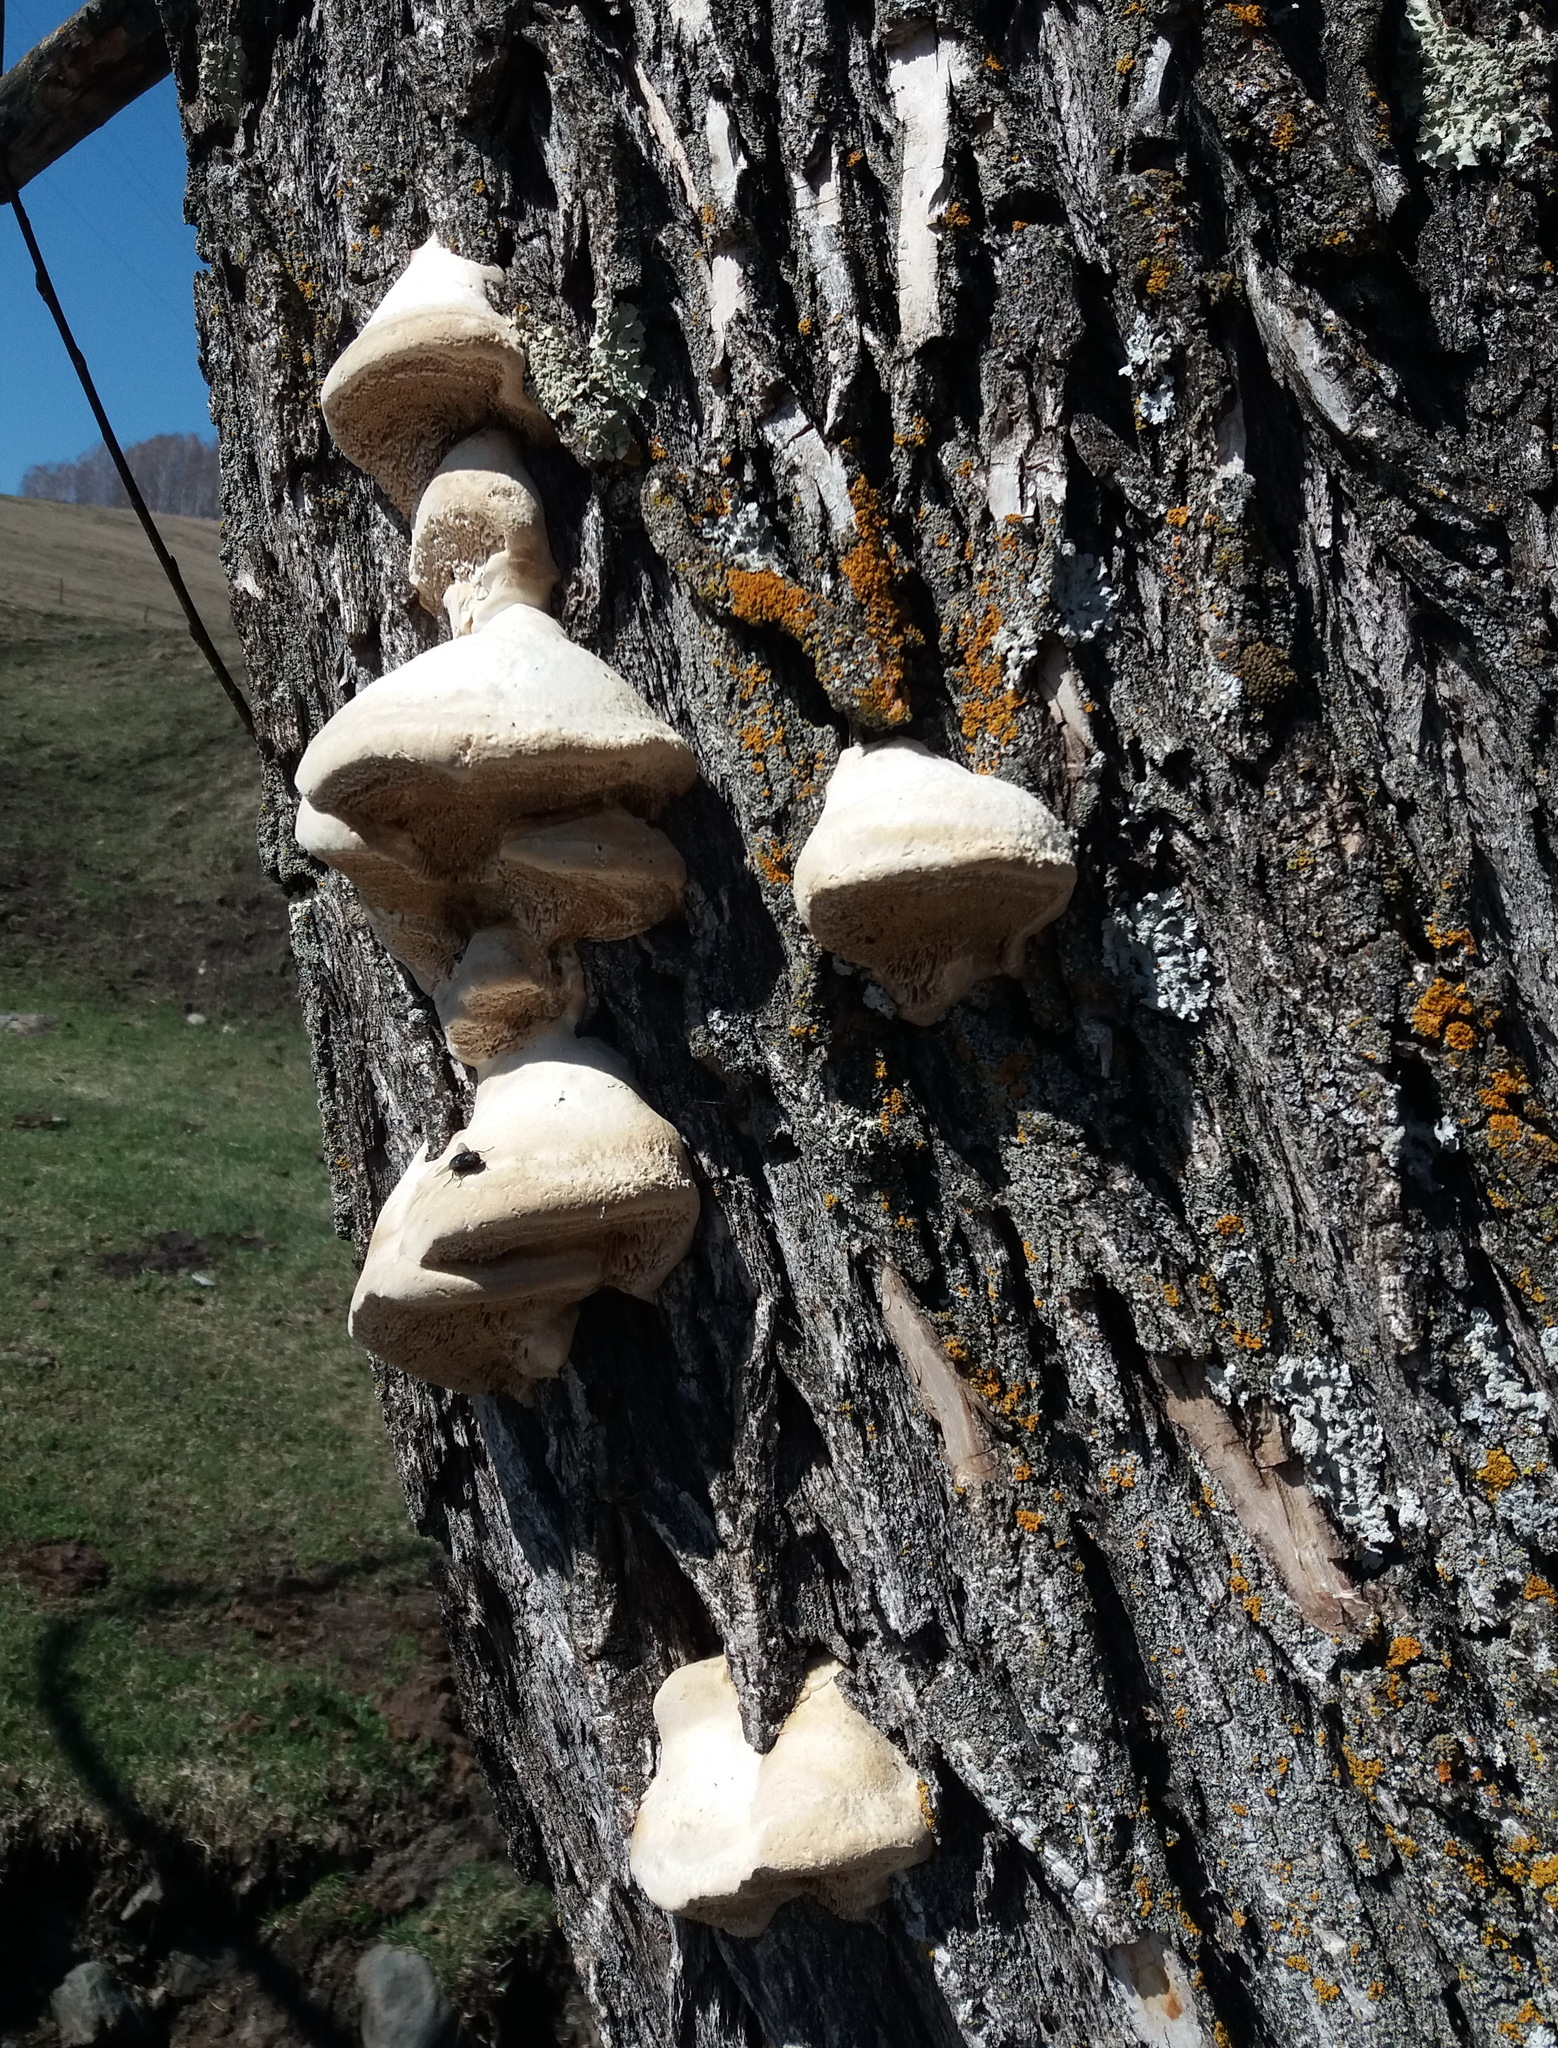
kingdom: Fungi
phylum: Basidiomycota
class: Agaricomycetes
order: Polyporales
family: Polyporaceae
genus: Trametes
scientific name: Trametes suaveolens
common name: Fragrant bracket
